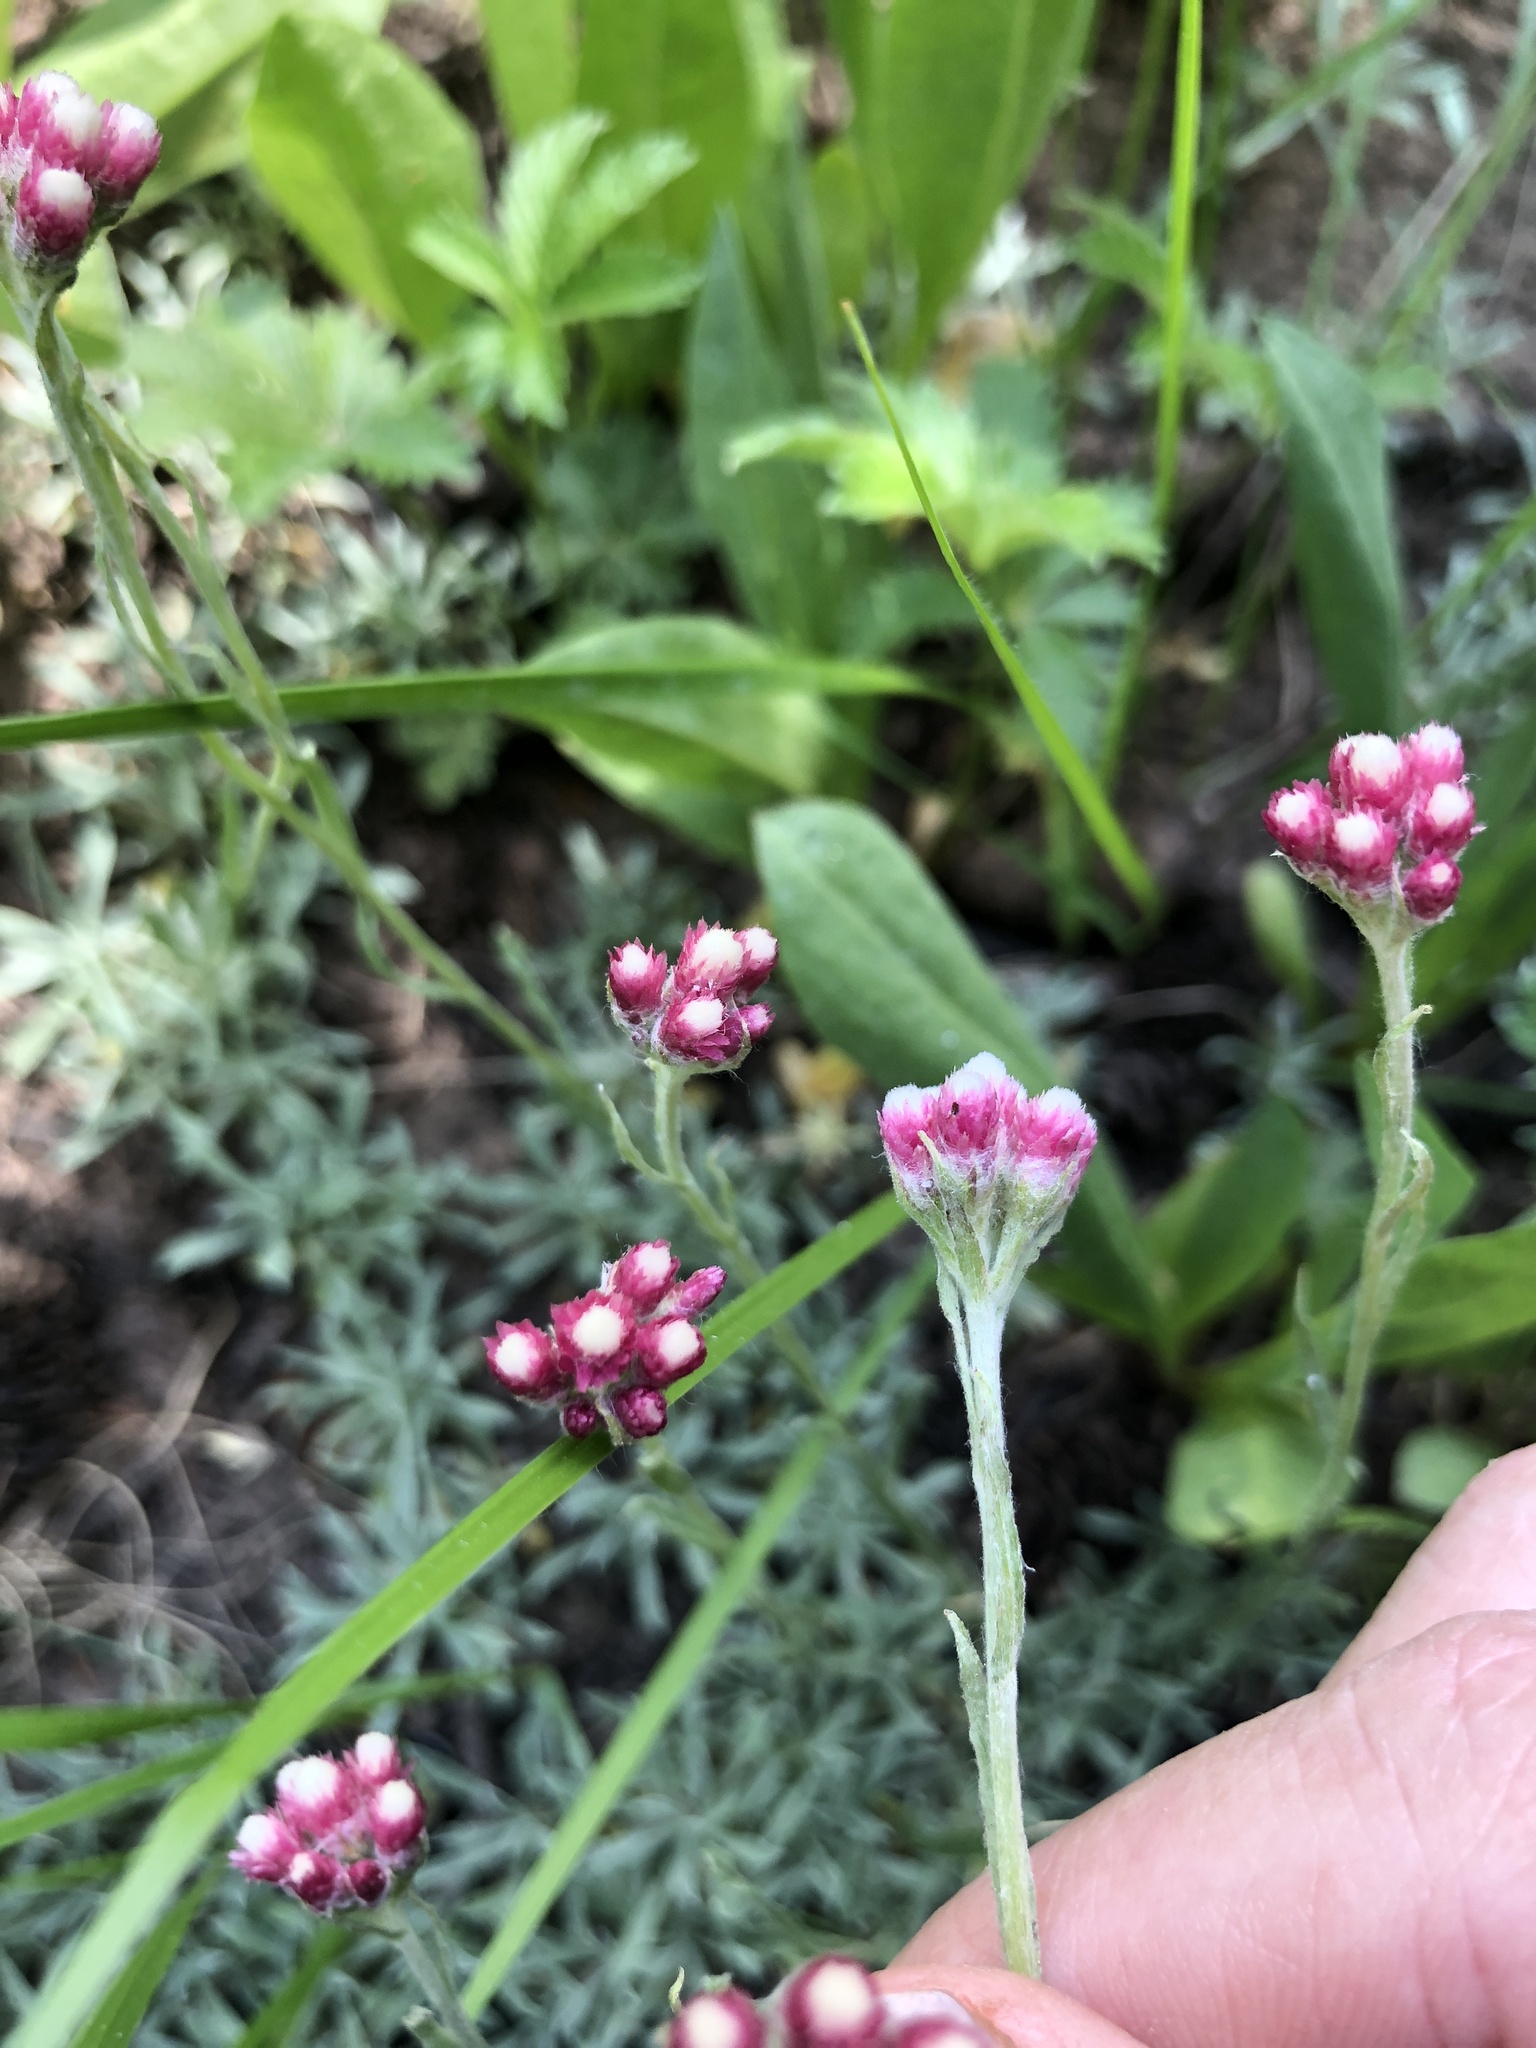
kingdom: Plantae
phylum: Tracheophyta
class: Magnoliopsida
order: Asterales
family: Asteraceae
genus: Antennaria
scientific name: Antennaria rosea
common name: Rosy pussytoes
